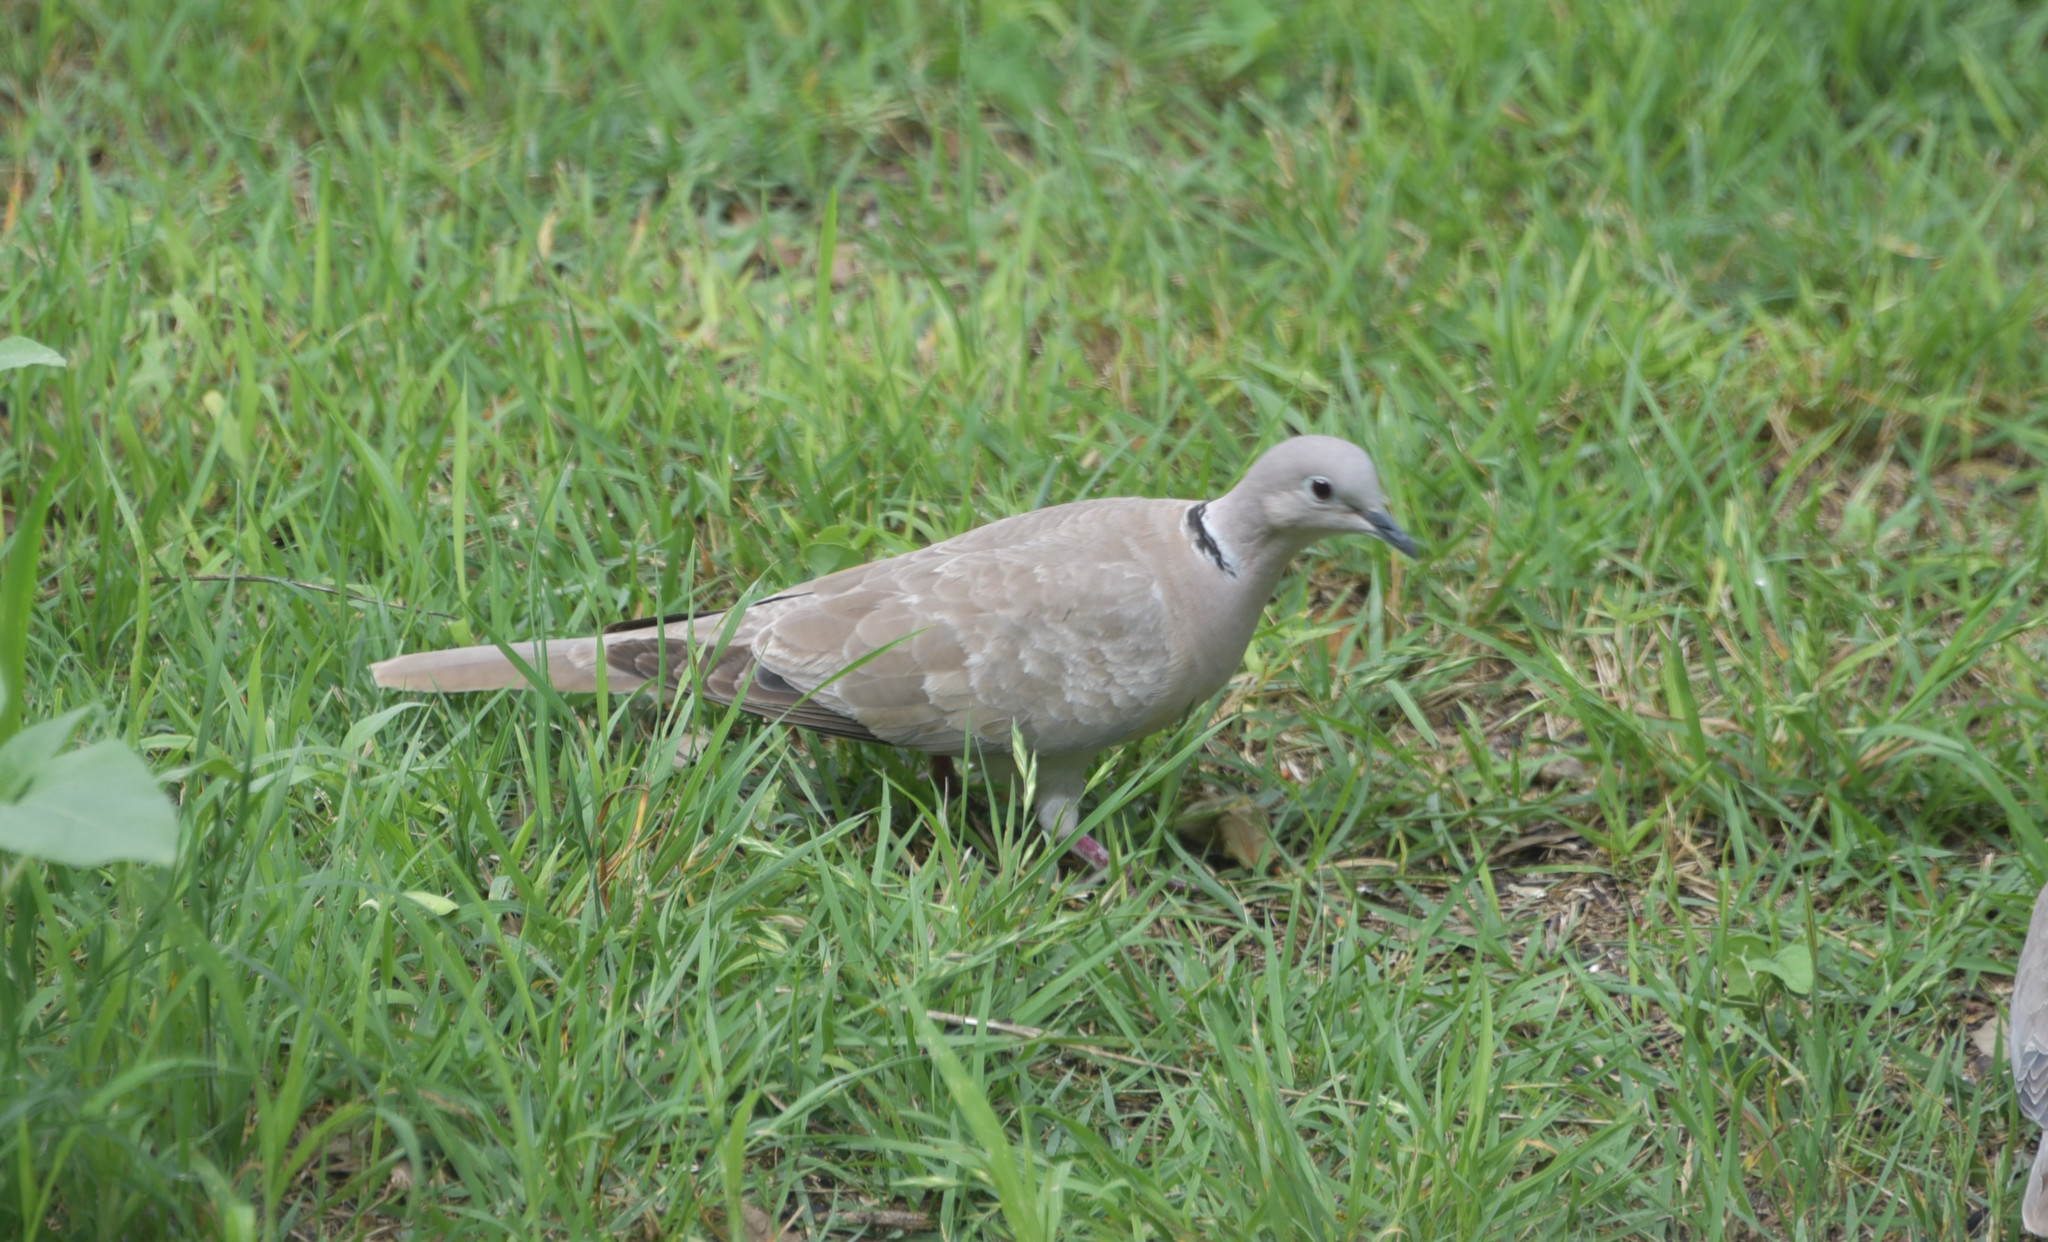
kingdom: Animalia
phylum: Chordata
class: Aves
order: Columbiformes
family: Columbidae
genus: Streptopelia
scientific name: Streptopelia decaocto
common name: Eurasian collared dove
